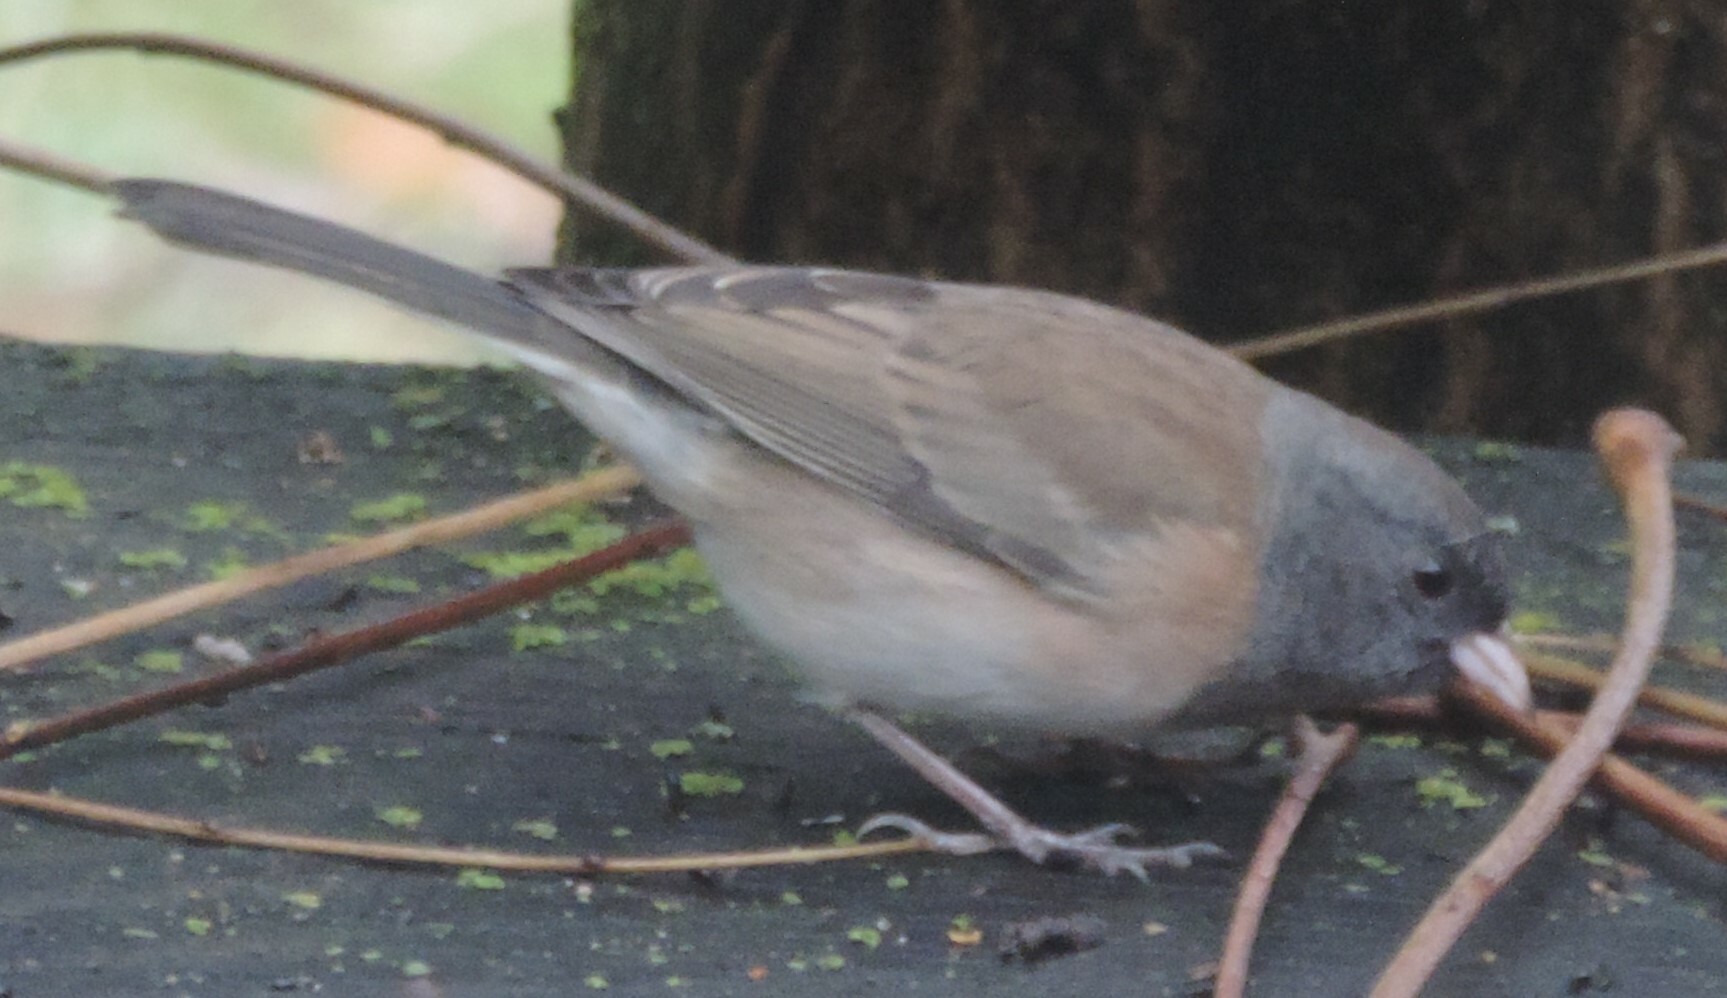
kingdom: Animalia
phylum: Chordata
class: Aves
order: Passeriformes
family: Passerellidae
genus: Junco
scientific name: Junco hyemalis
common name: Dark-eyed junco
